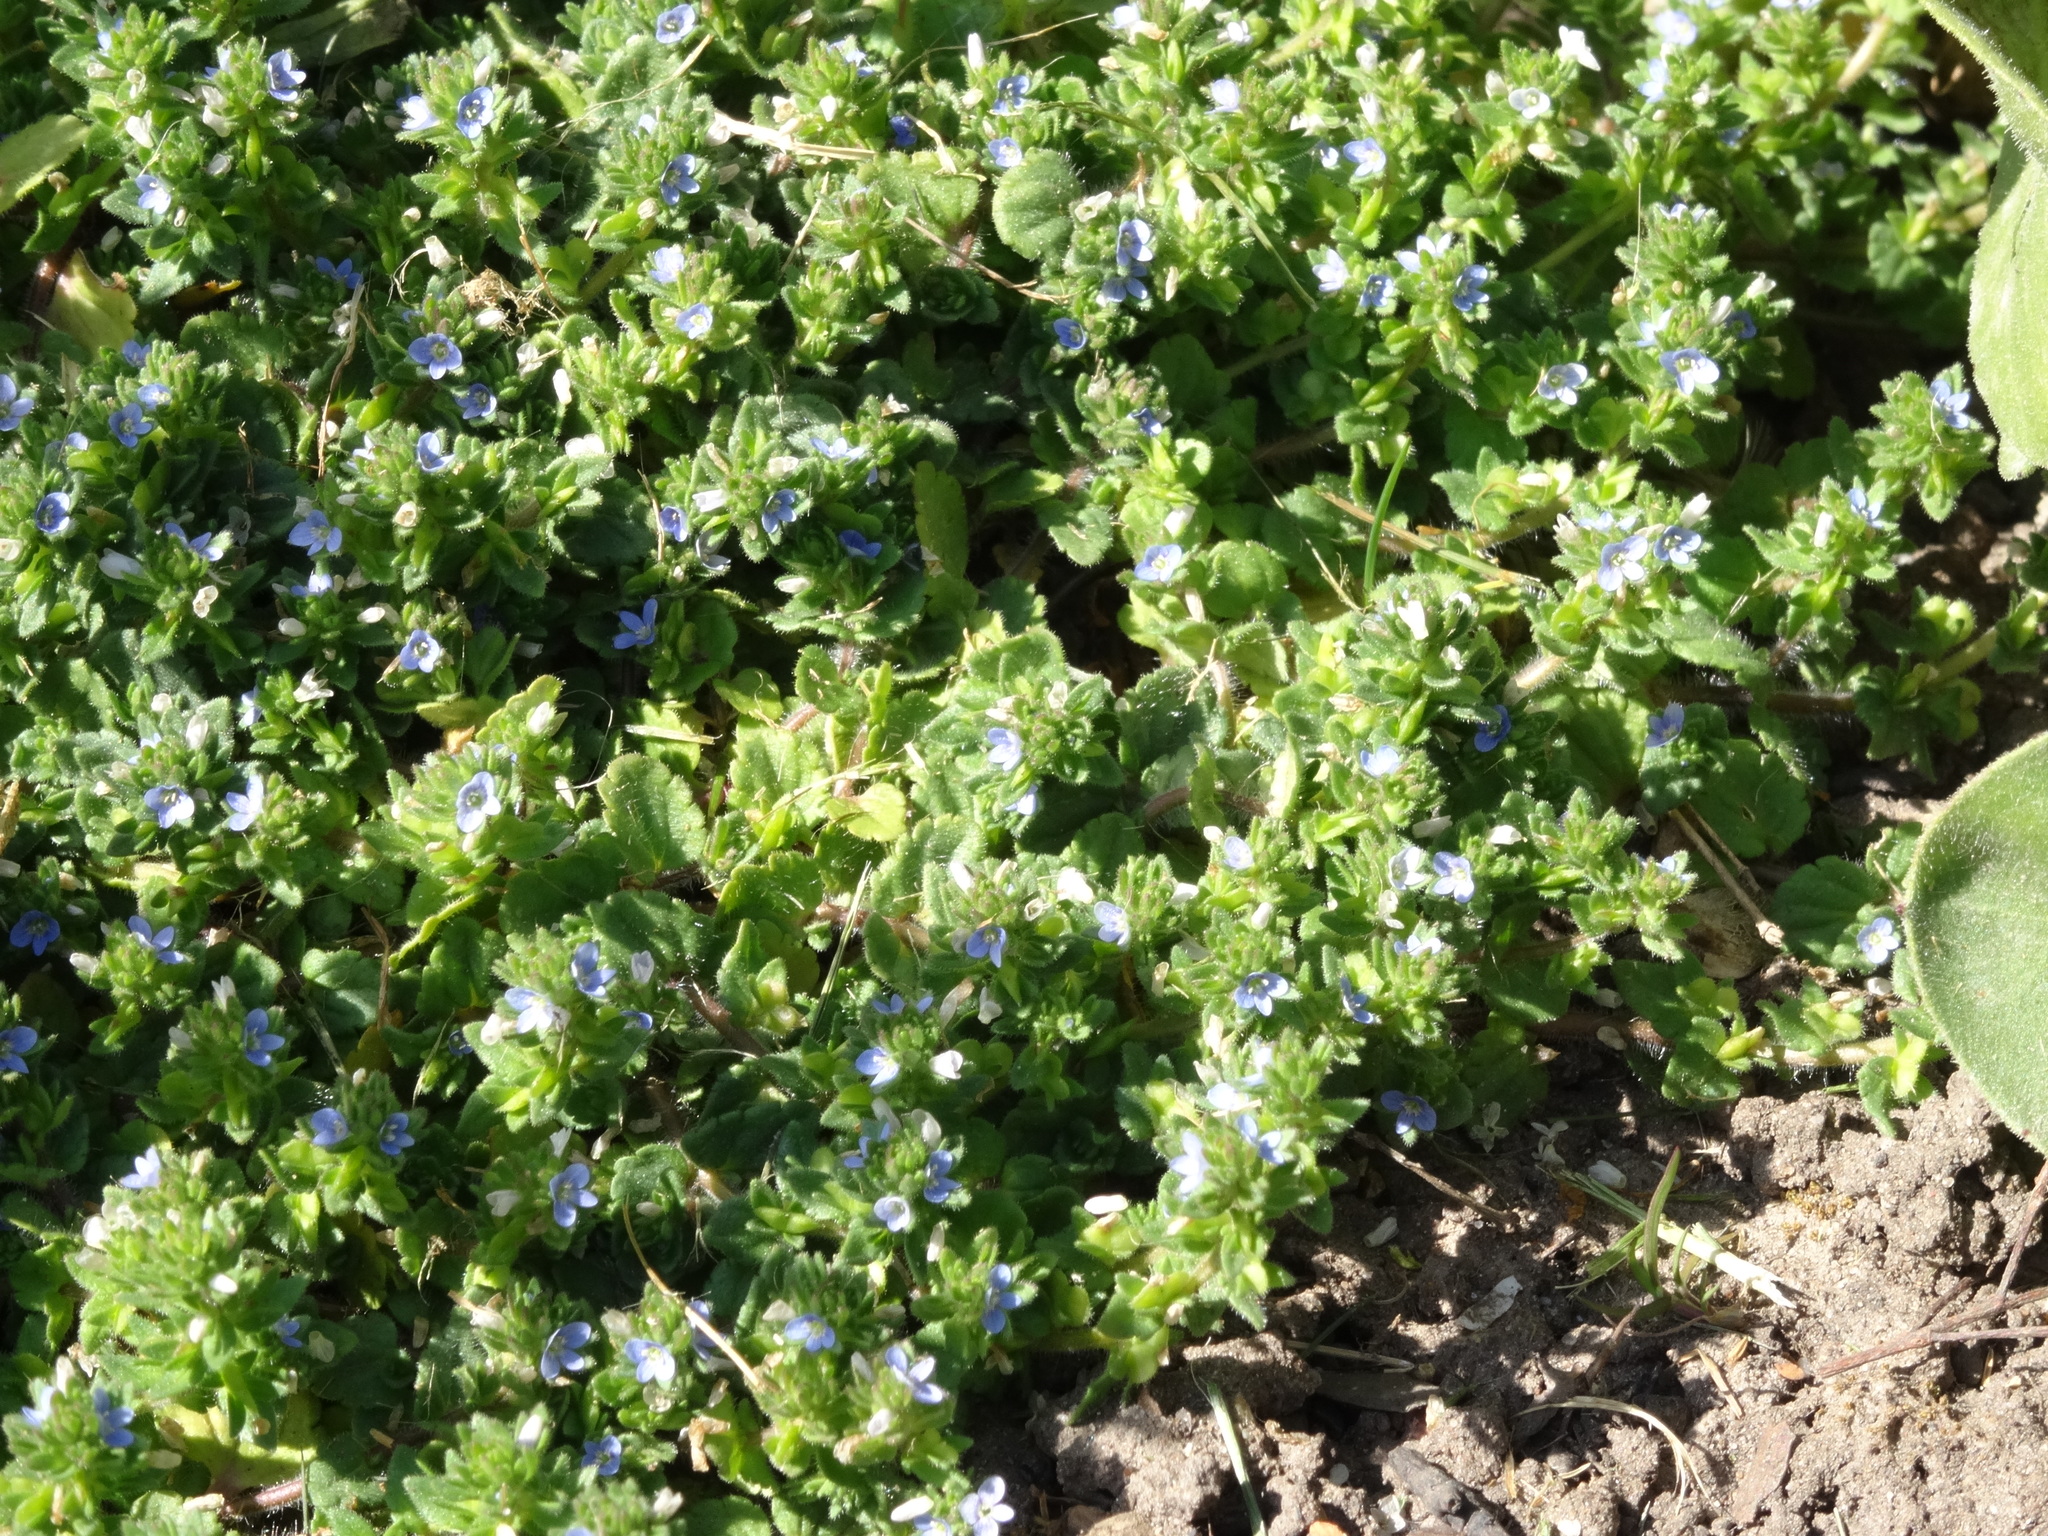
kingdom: Plantae
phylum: Tracheophyta
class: Magnoliopsida
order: Lamiales
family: Plantaginaceae
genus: Veronica
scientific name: Veronica arvensis
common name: Corn speedwell
